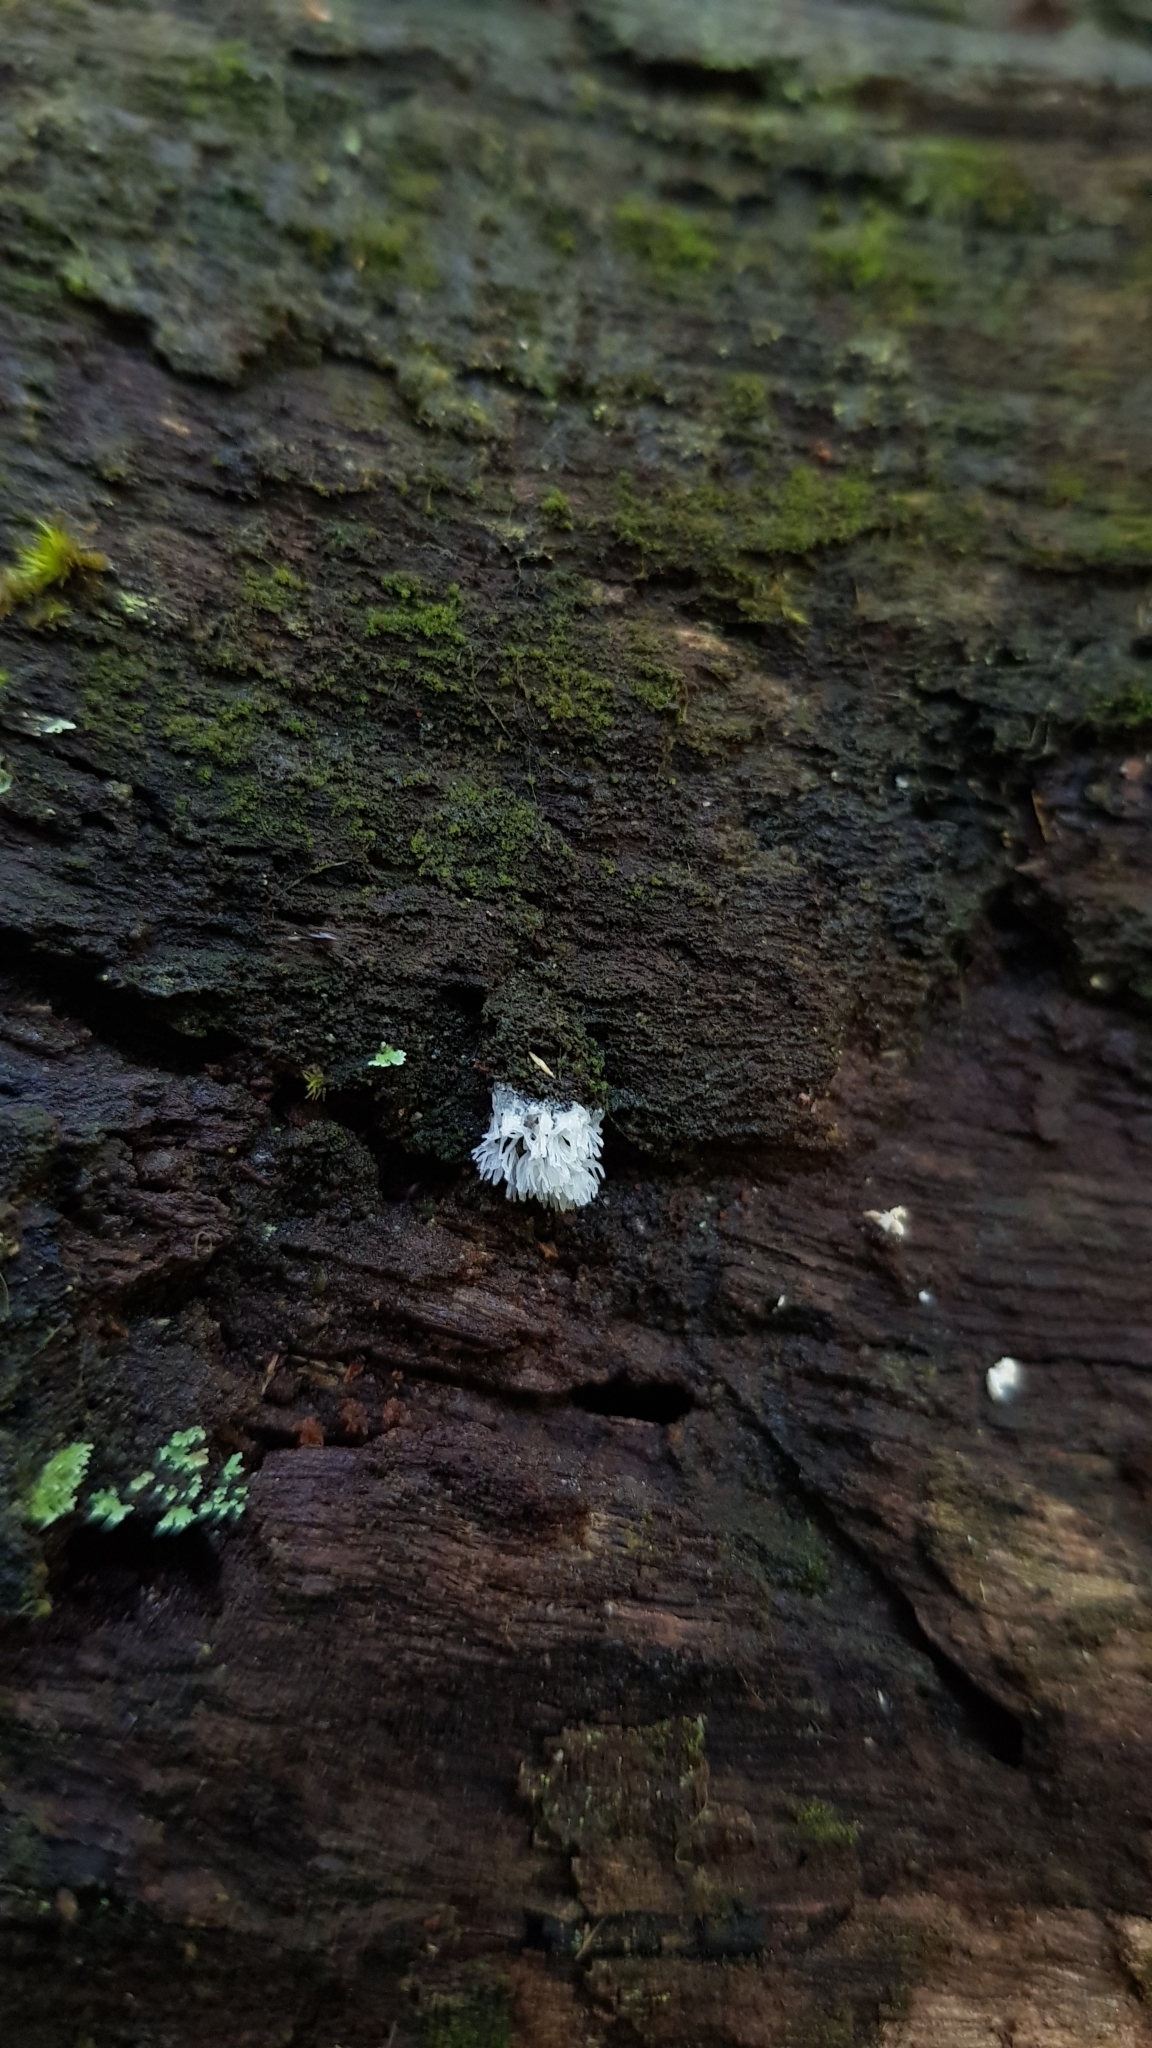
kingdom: Protozoa
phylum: Mycetozoa
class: Protosteliomycetes
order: Ceratiomyxales
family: Ceratiomyxaceae
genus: Ceratiomyxa
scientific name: Ceratiomyxa fruticulosa
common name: Honeycomb coral slime mold
